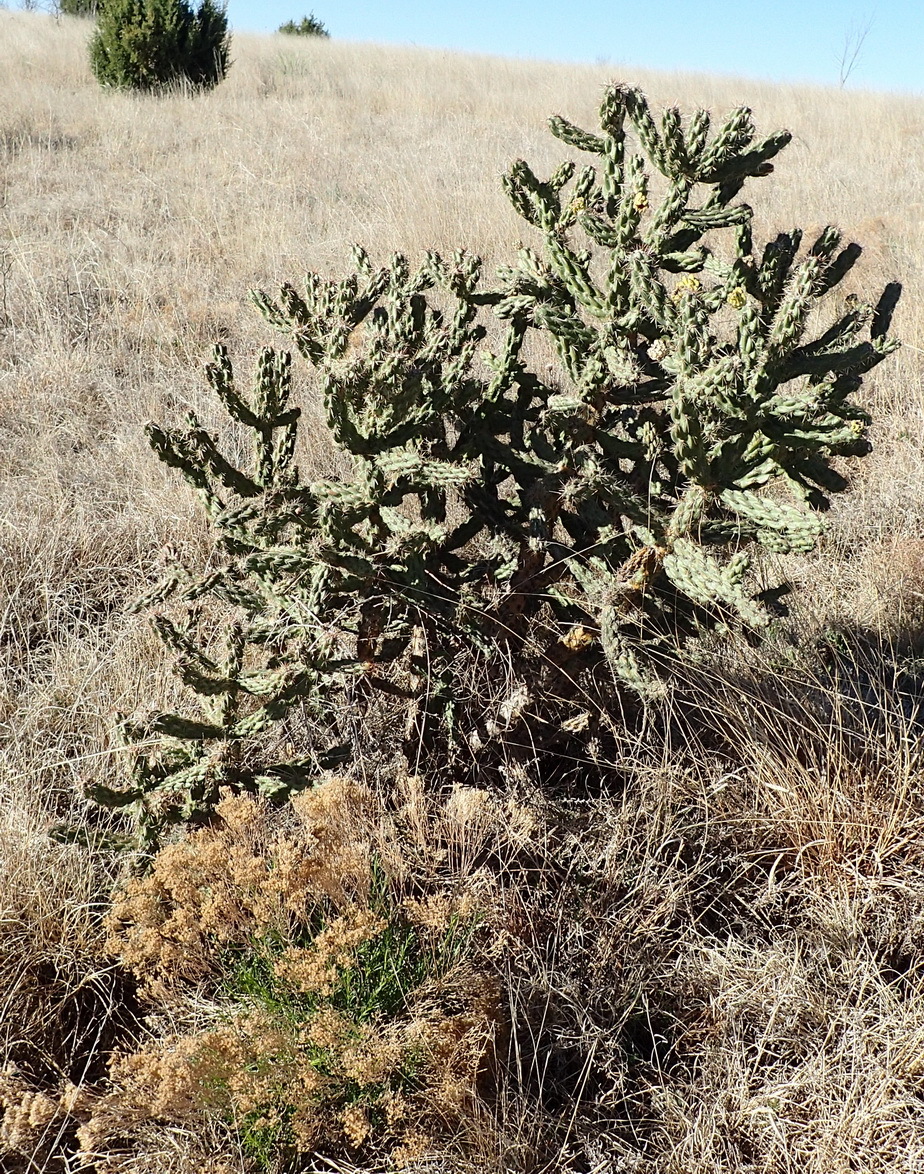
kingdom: Plantae
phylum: Tracheophyta
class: Magnoliopsida
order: Caryophyllales
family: Cactaceae
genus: Cylindropuntia
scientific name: Cylindropuntia imbricata
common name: Candelabrum cactus
